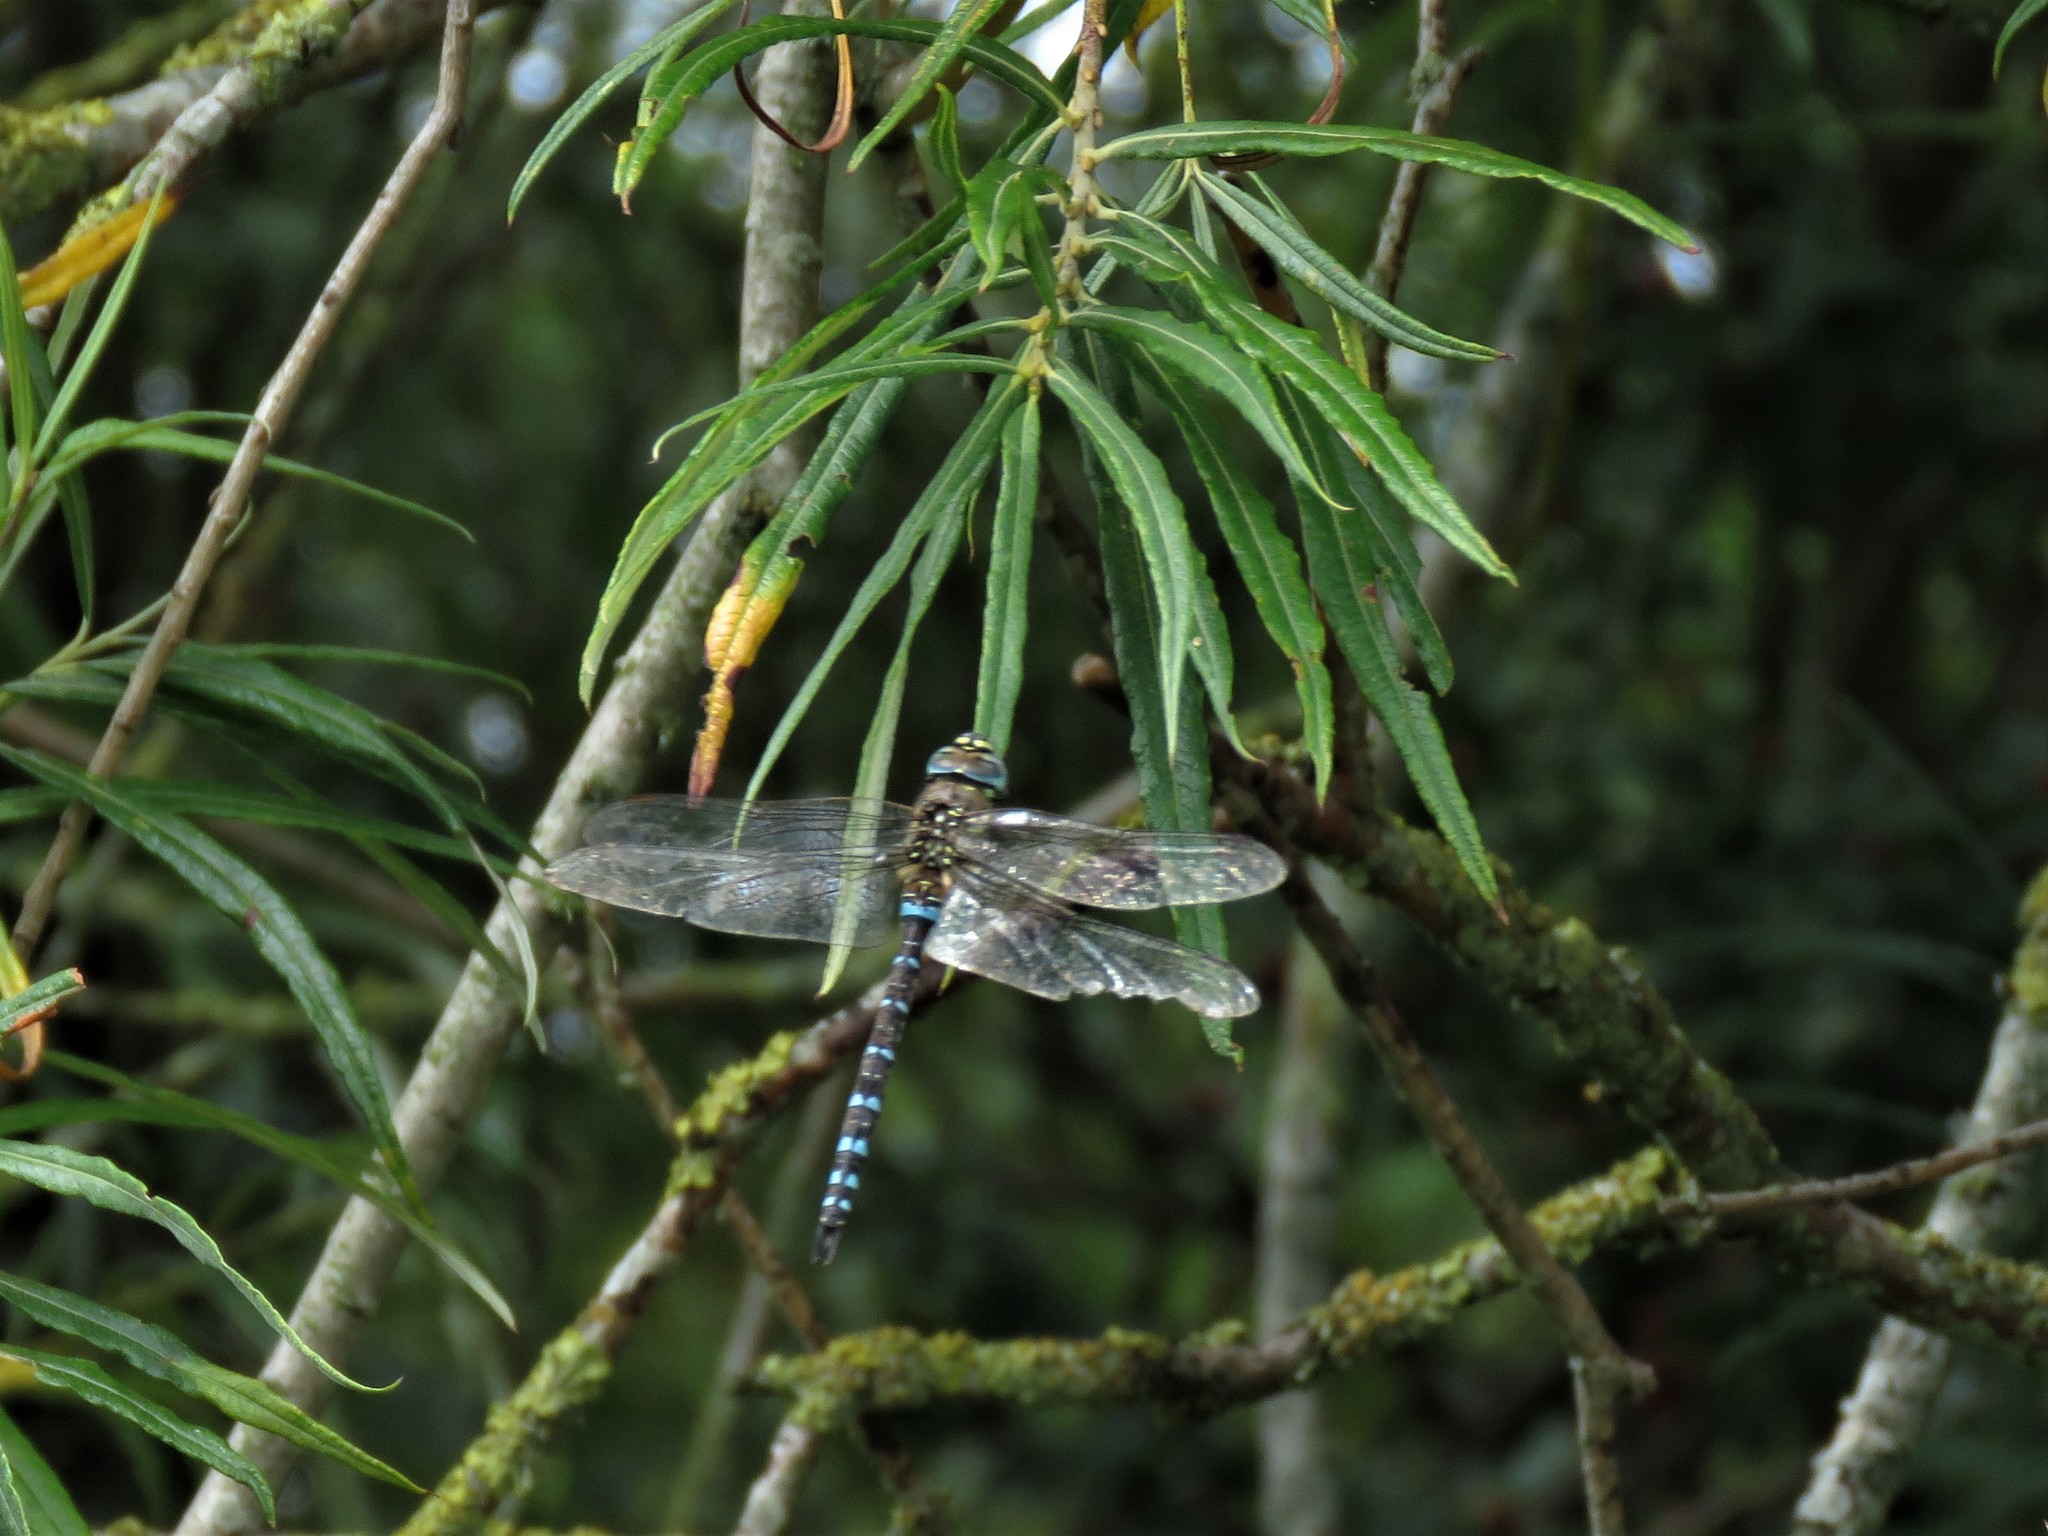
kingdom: Animalia
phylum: Arthropoda
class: Insecta
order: Odonata
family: Aeshnidae
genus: Aeshna
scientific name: Aeshna mixta
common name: Migrant hawker
